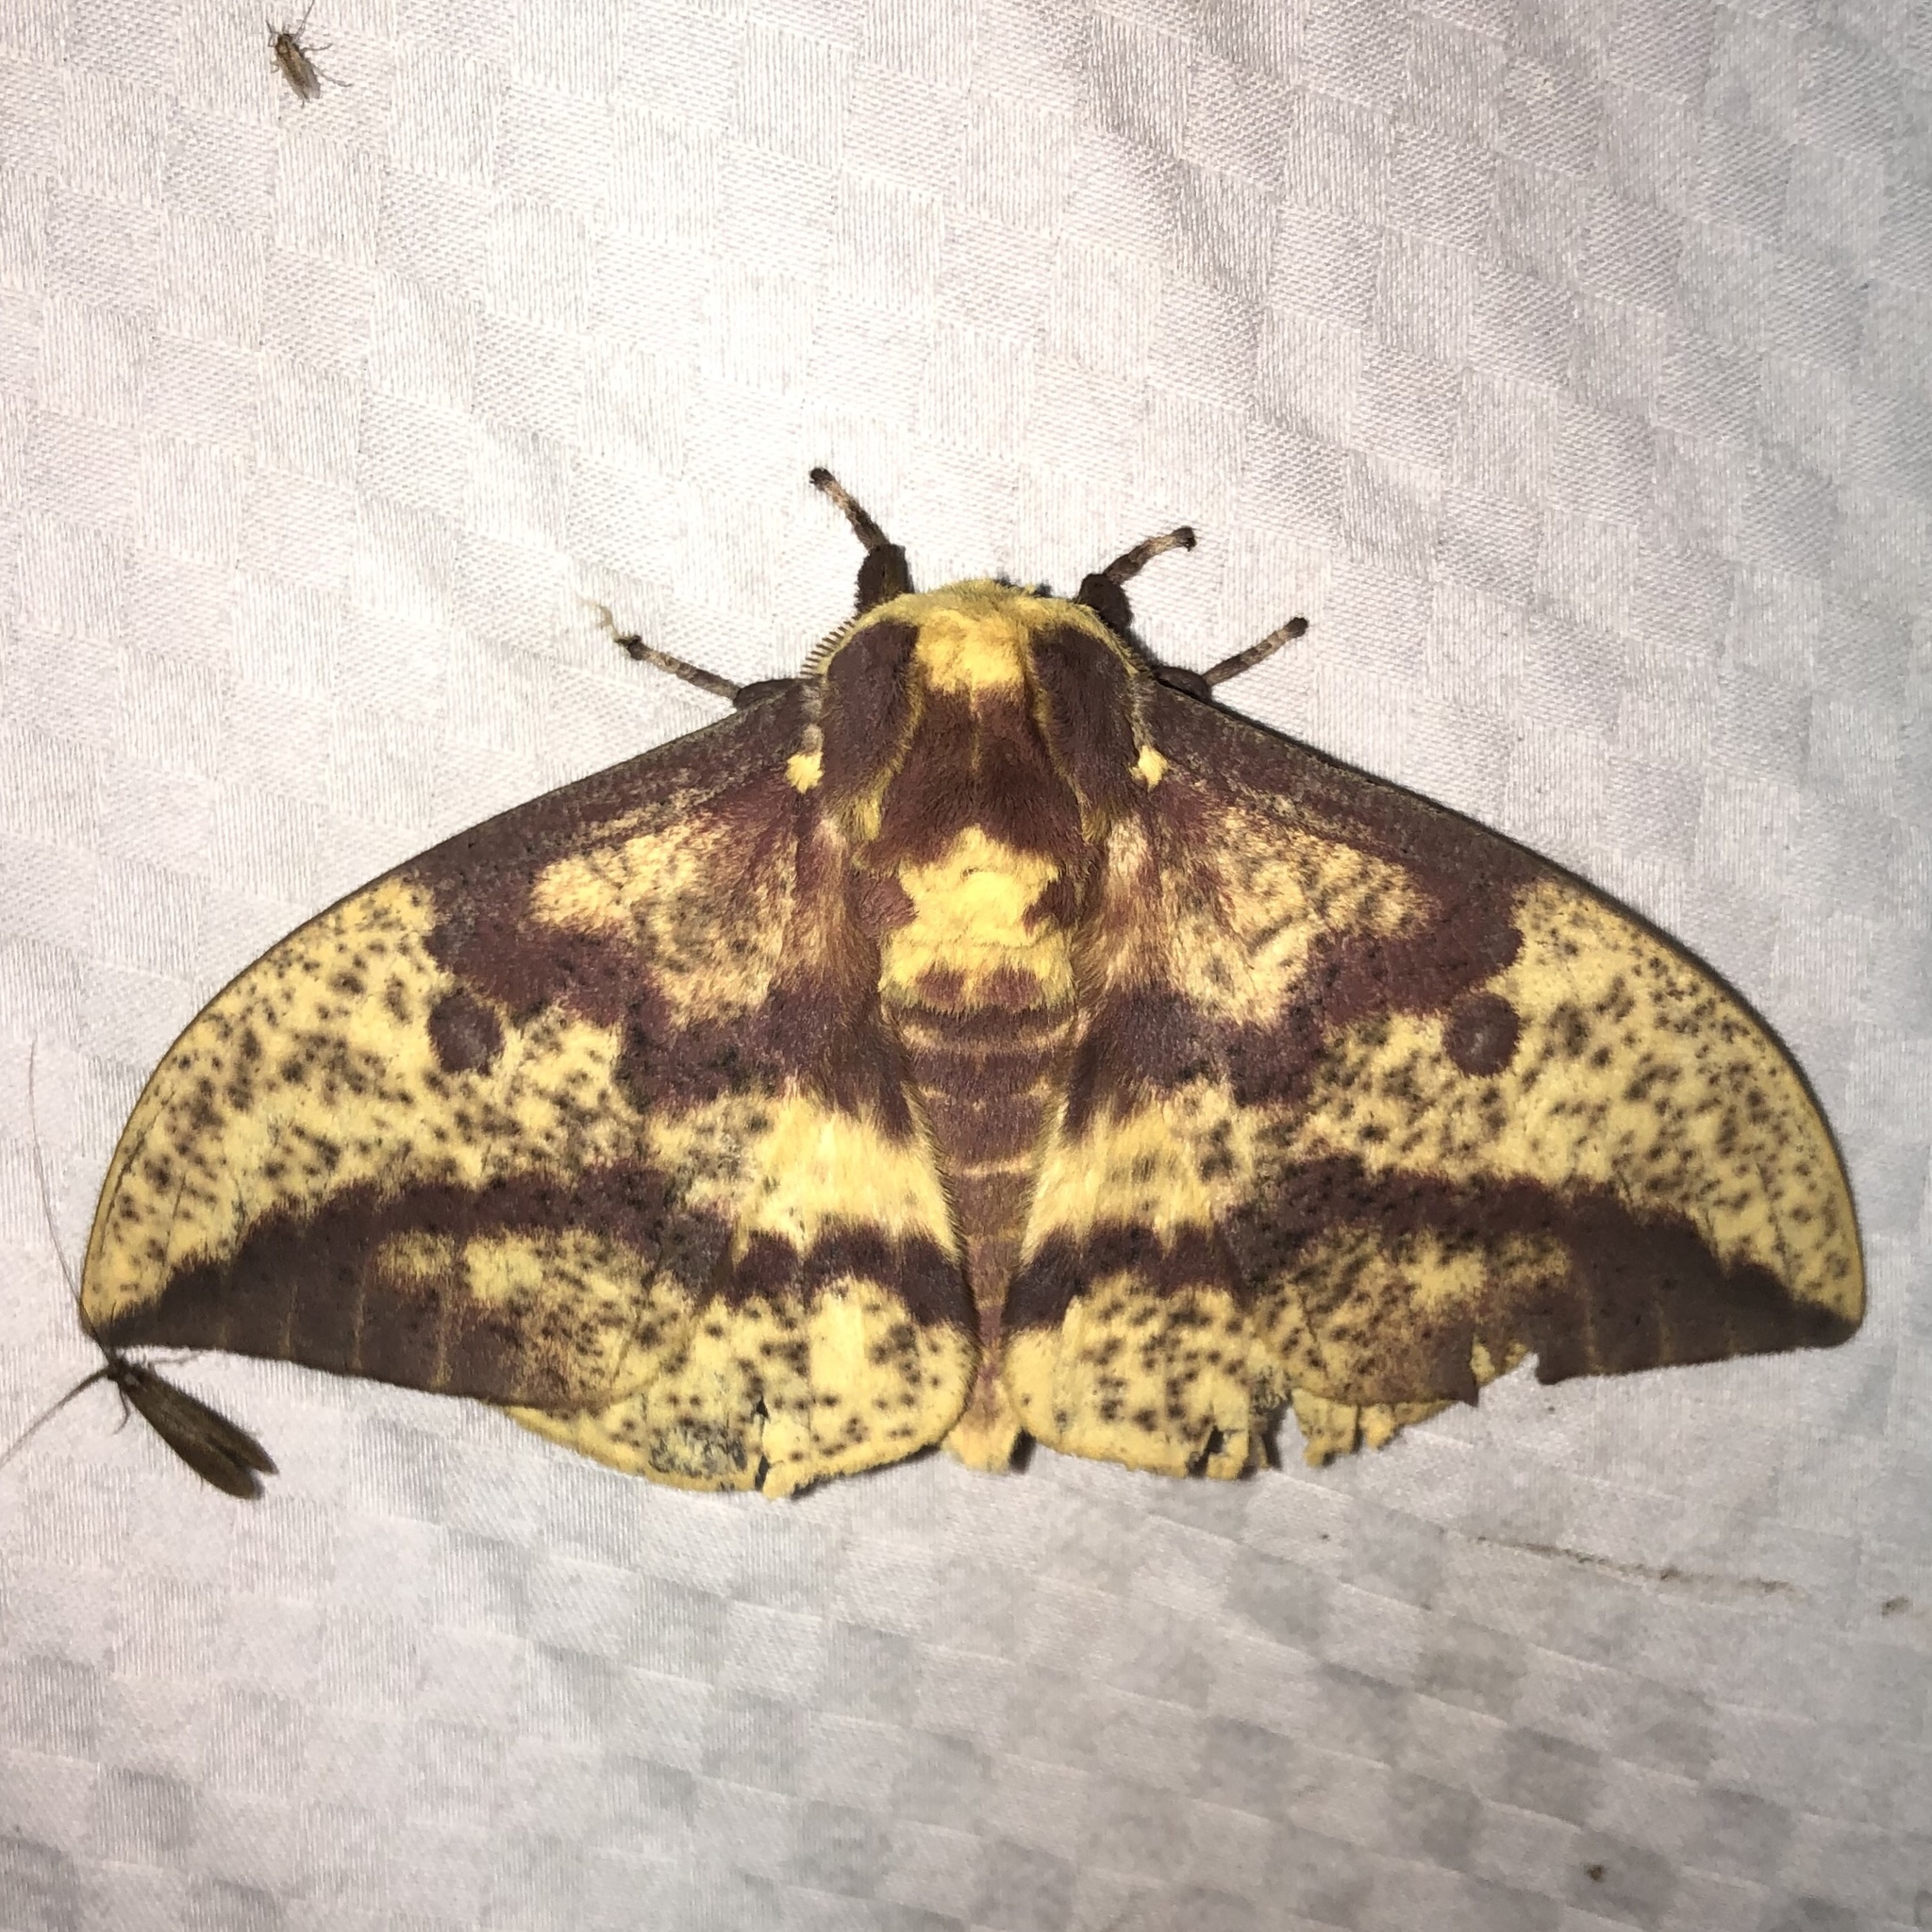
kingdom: Animalia
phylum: Arthropoda
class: Insecta
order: Lepidoptera
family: Saturniidae
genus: Eacles
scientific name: Eacles
